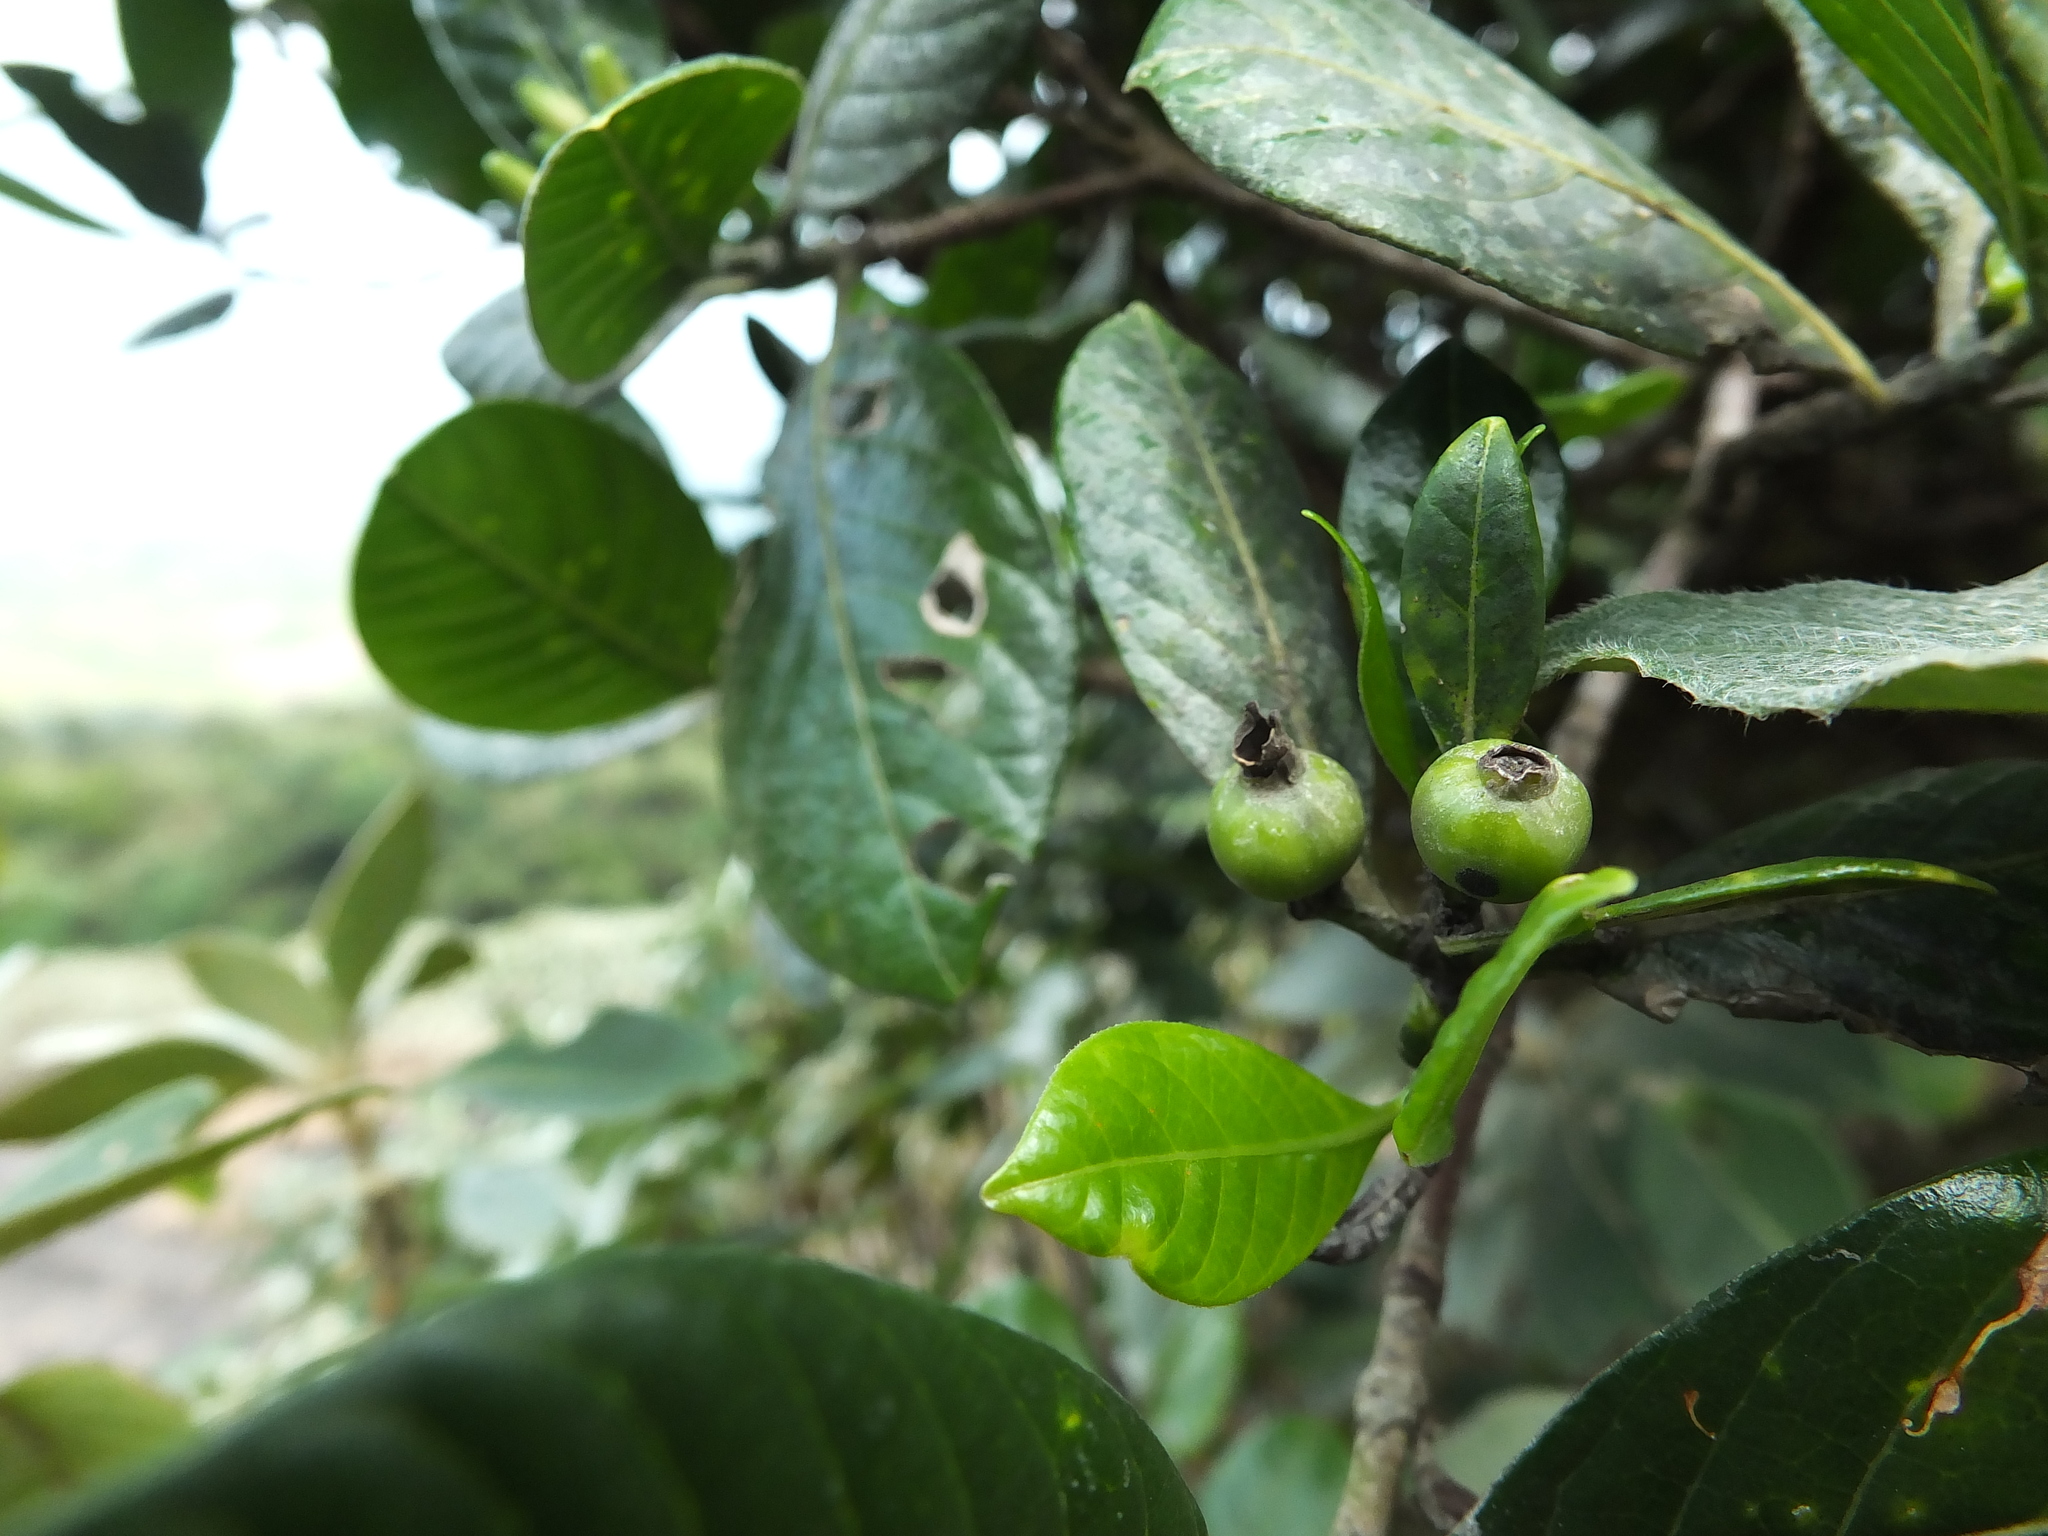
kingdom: Plantae
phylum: Tracheophyta
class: Magnoliopsida
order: Gentianales
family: Rubiaceae
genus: Tarenna
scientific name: Tarenna asiatica
